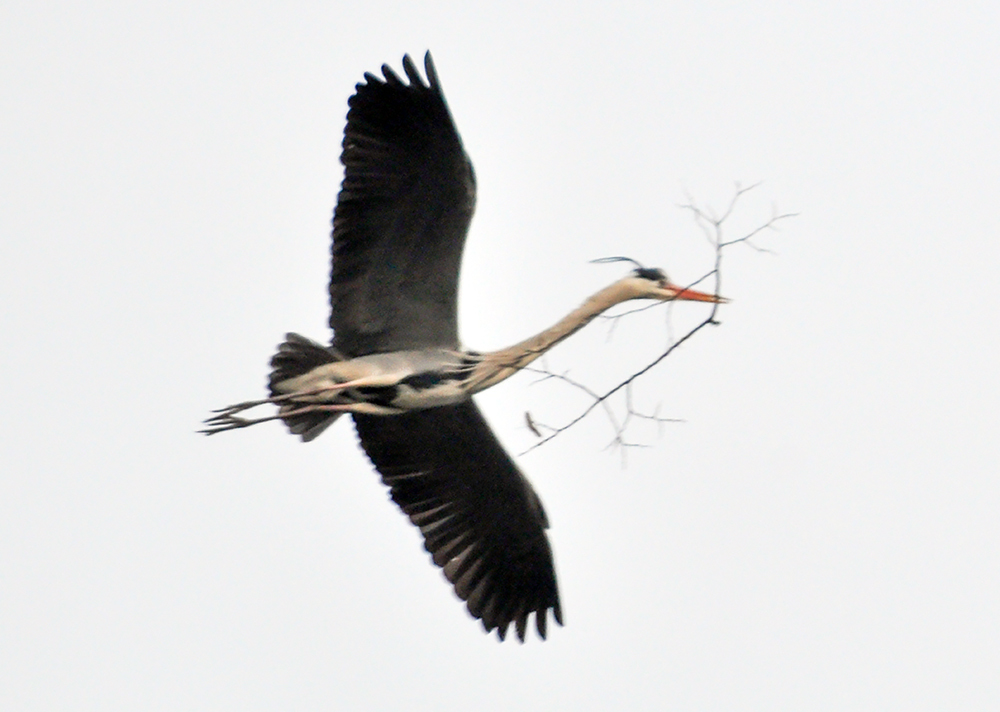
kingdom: Animalia
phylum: Chordata
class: Aves
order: Pelecaniformes
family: Ardeidae
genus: Ardea
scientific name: Ardea cinerea
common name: Grey heron
